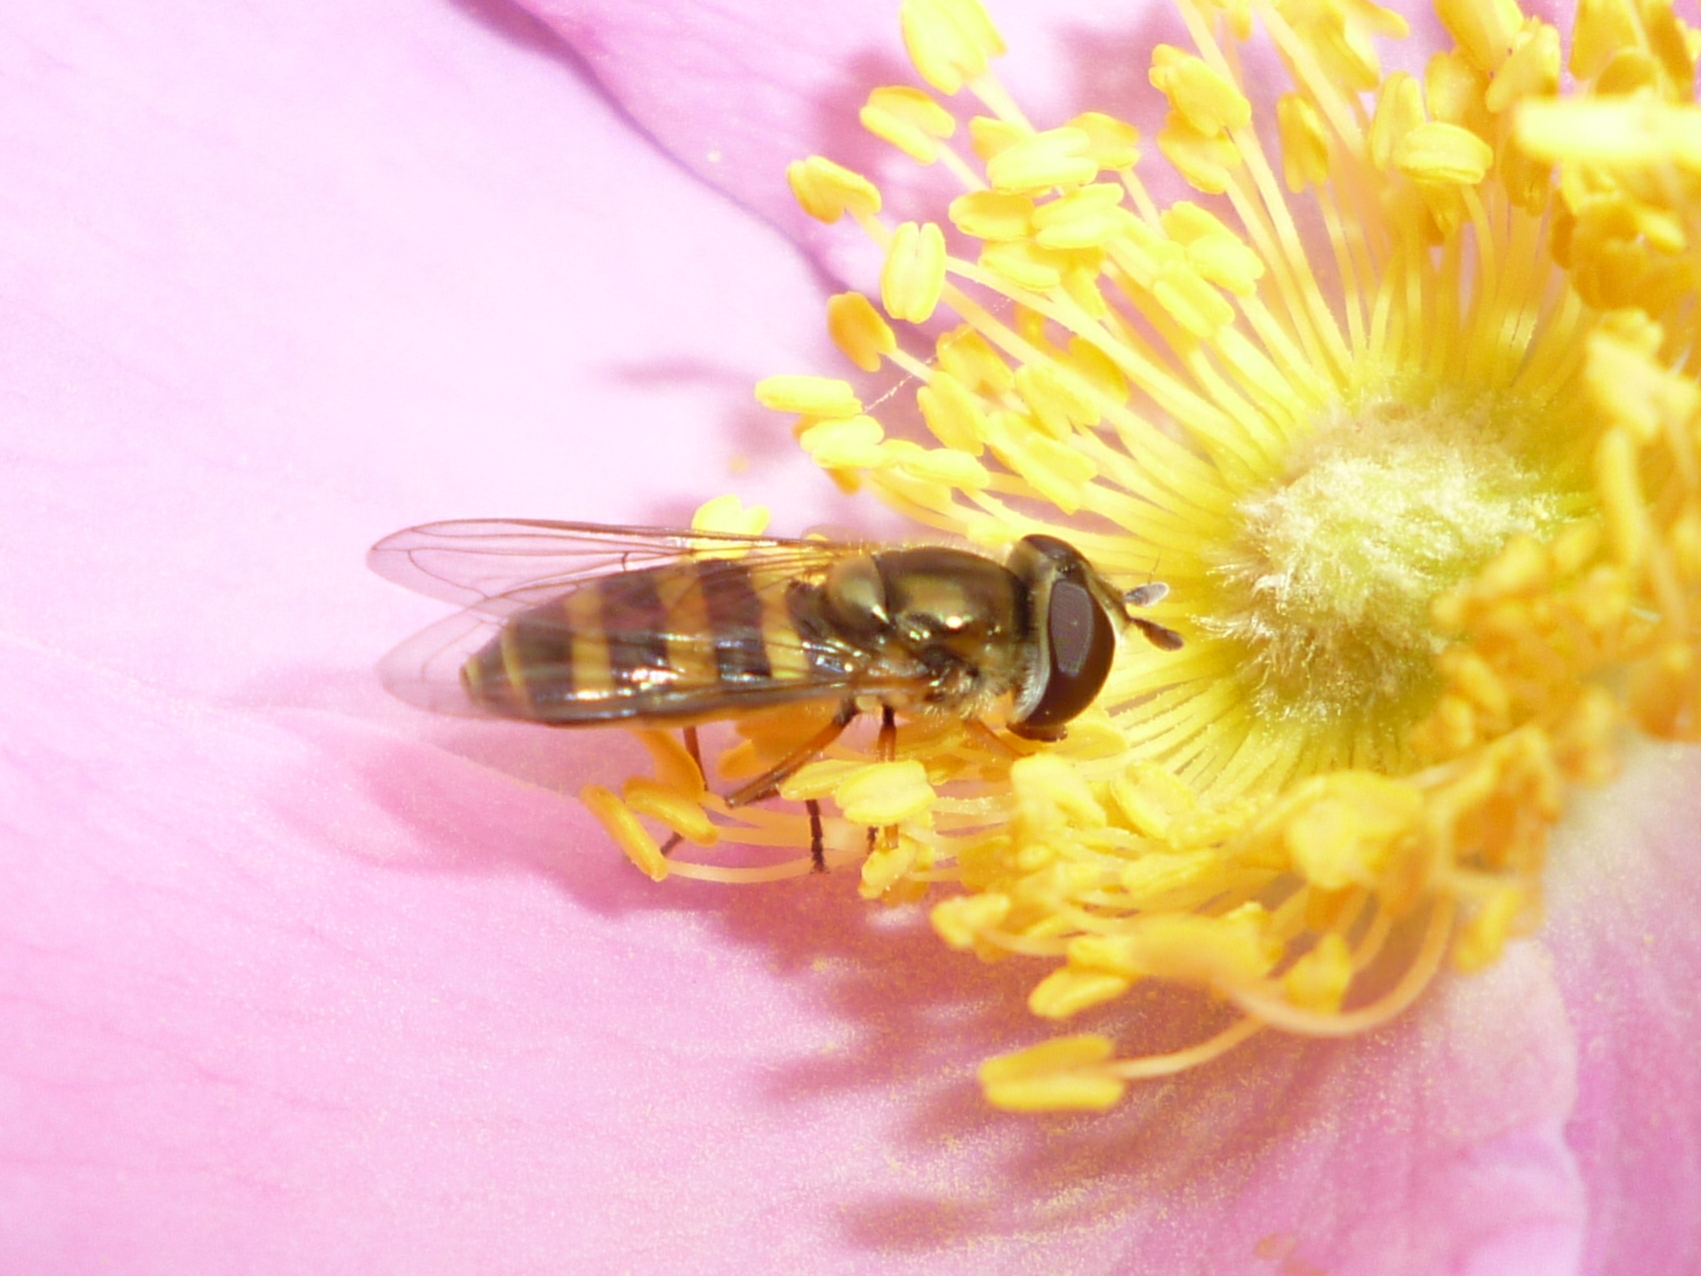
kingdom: Animalia
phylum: Arthropoda
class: Insecta
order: Diptera
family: Syrphidae
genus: Eupeodes
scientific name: Eupeodes
